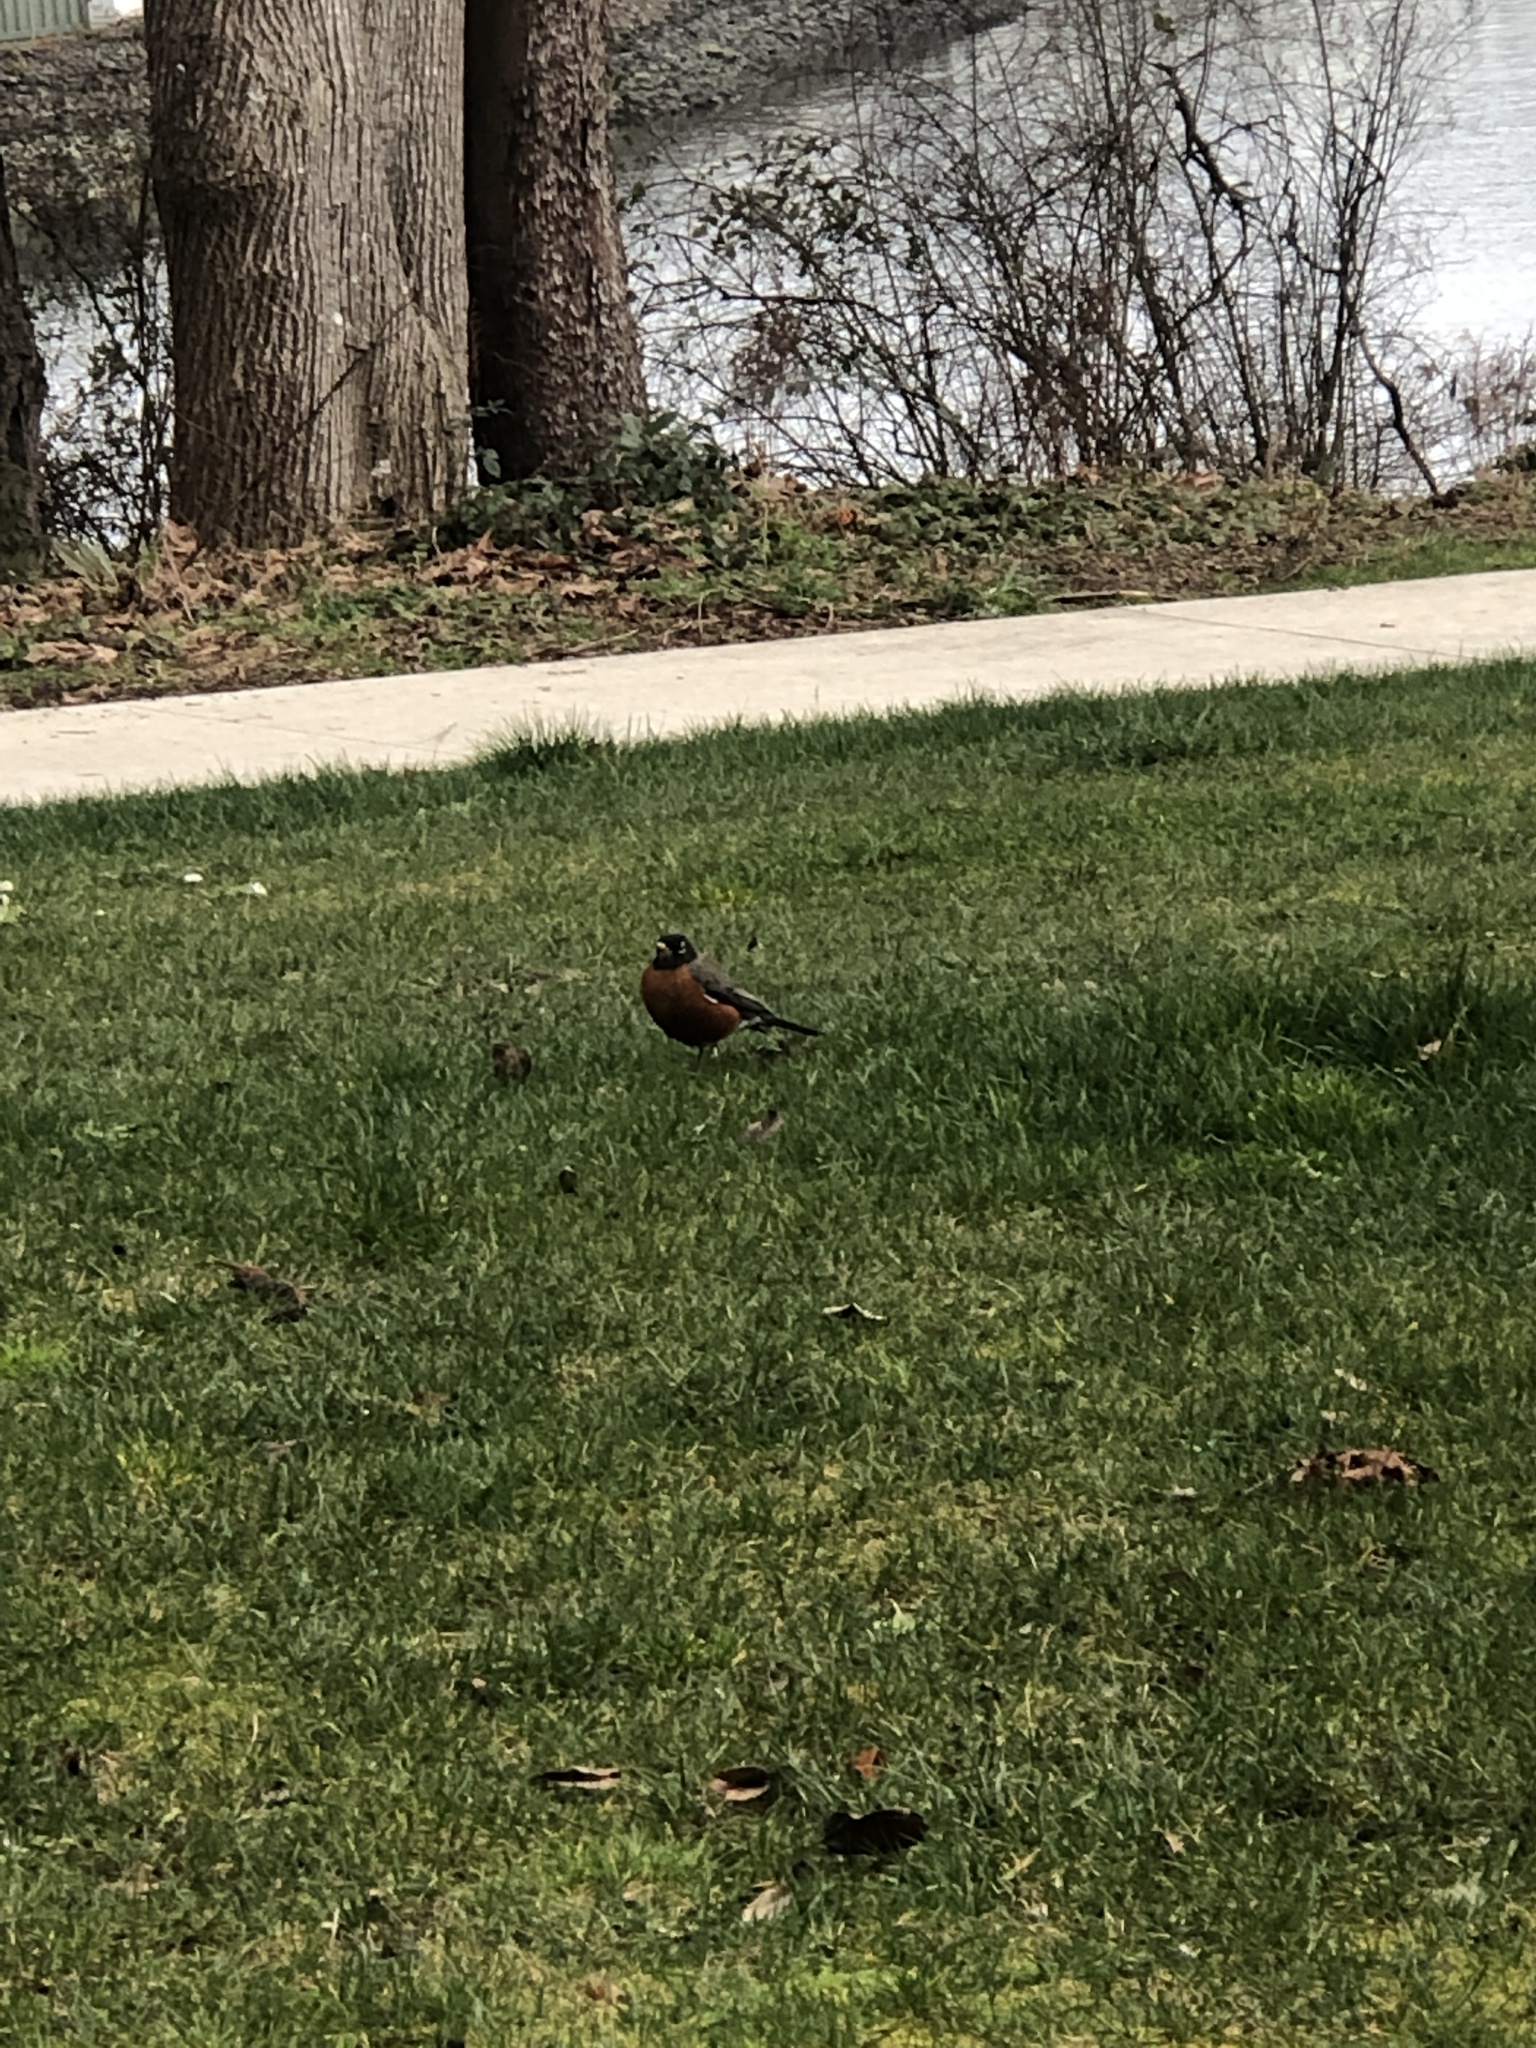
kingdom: Animalia
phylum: Chordata
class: Aves
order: Passeriformes
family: Turdidae
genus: Turdus
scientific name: Turdus migratorius
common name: American robin
